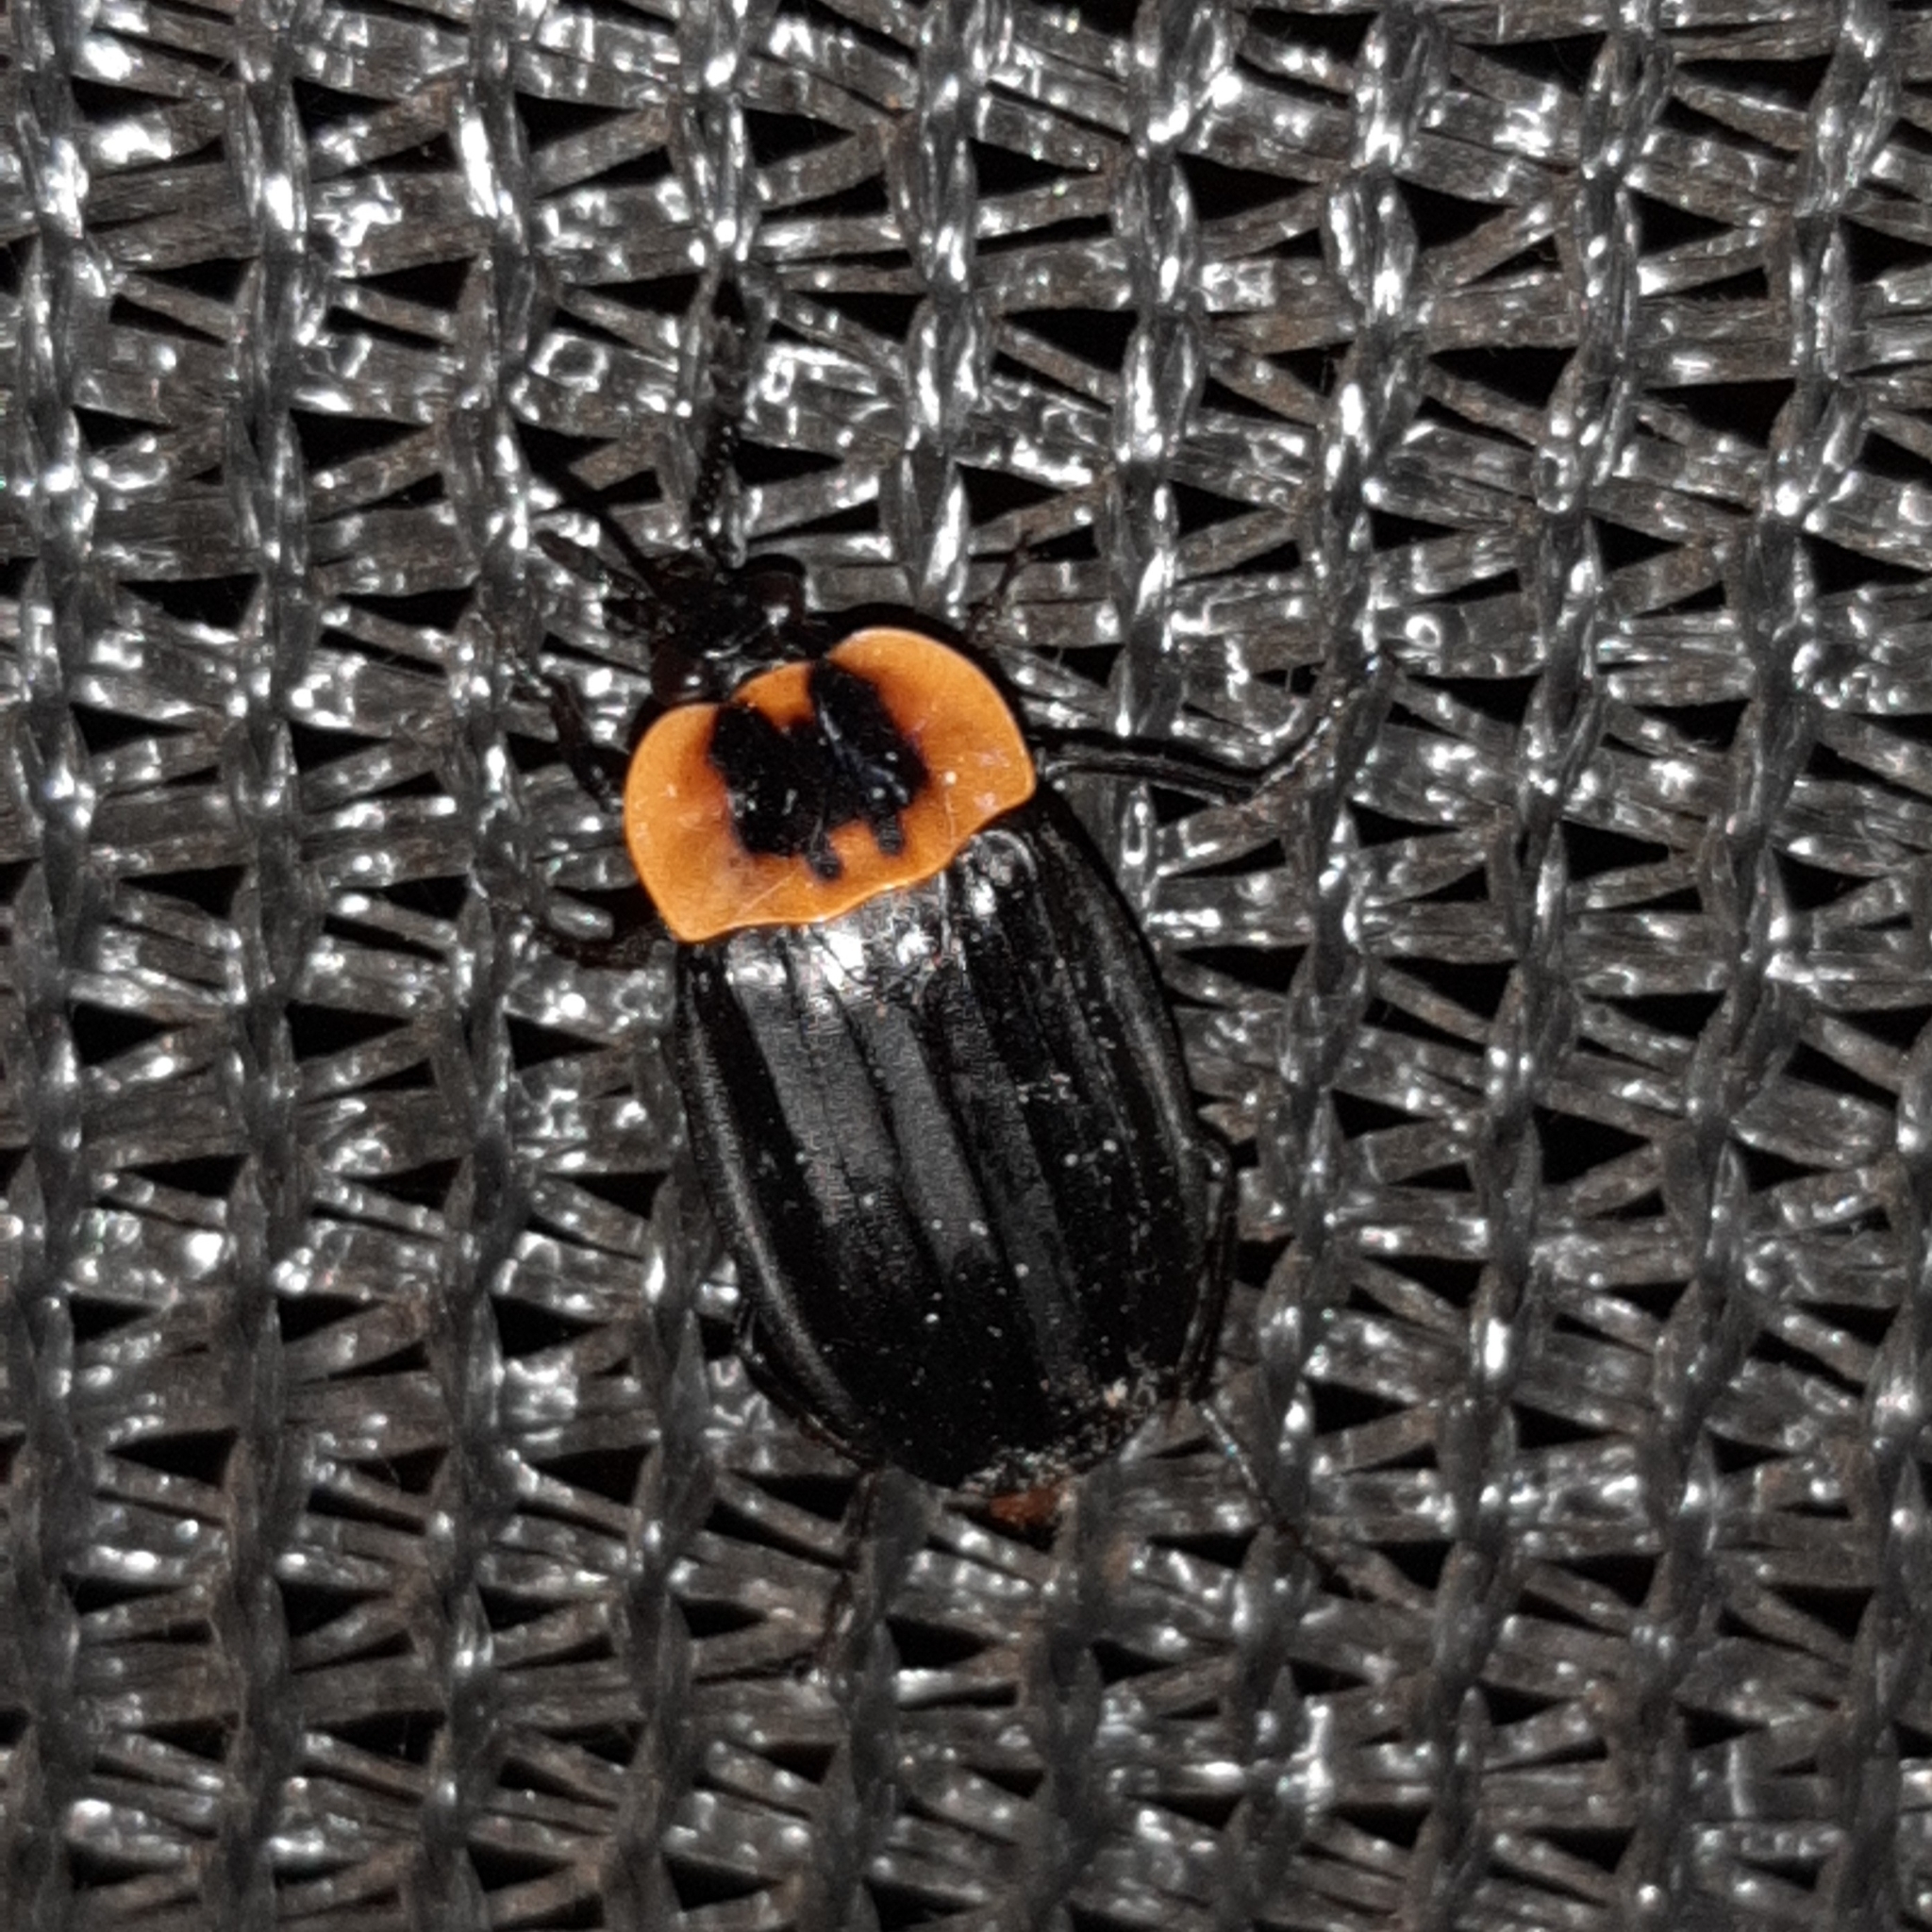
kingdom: Animalia
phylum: Arthropoda
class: Insecta
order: Coleoptera
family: Staphylinidae
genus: Oxelytrum
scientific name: Oxelytrum discicolle
